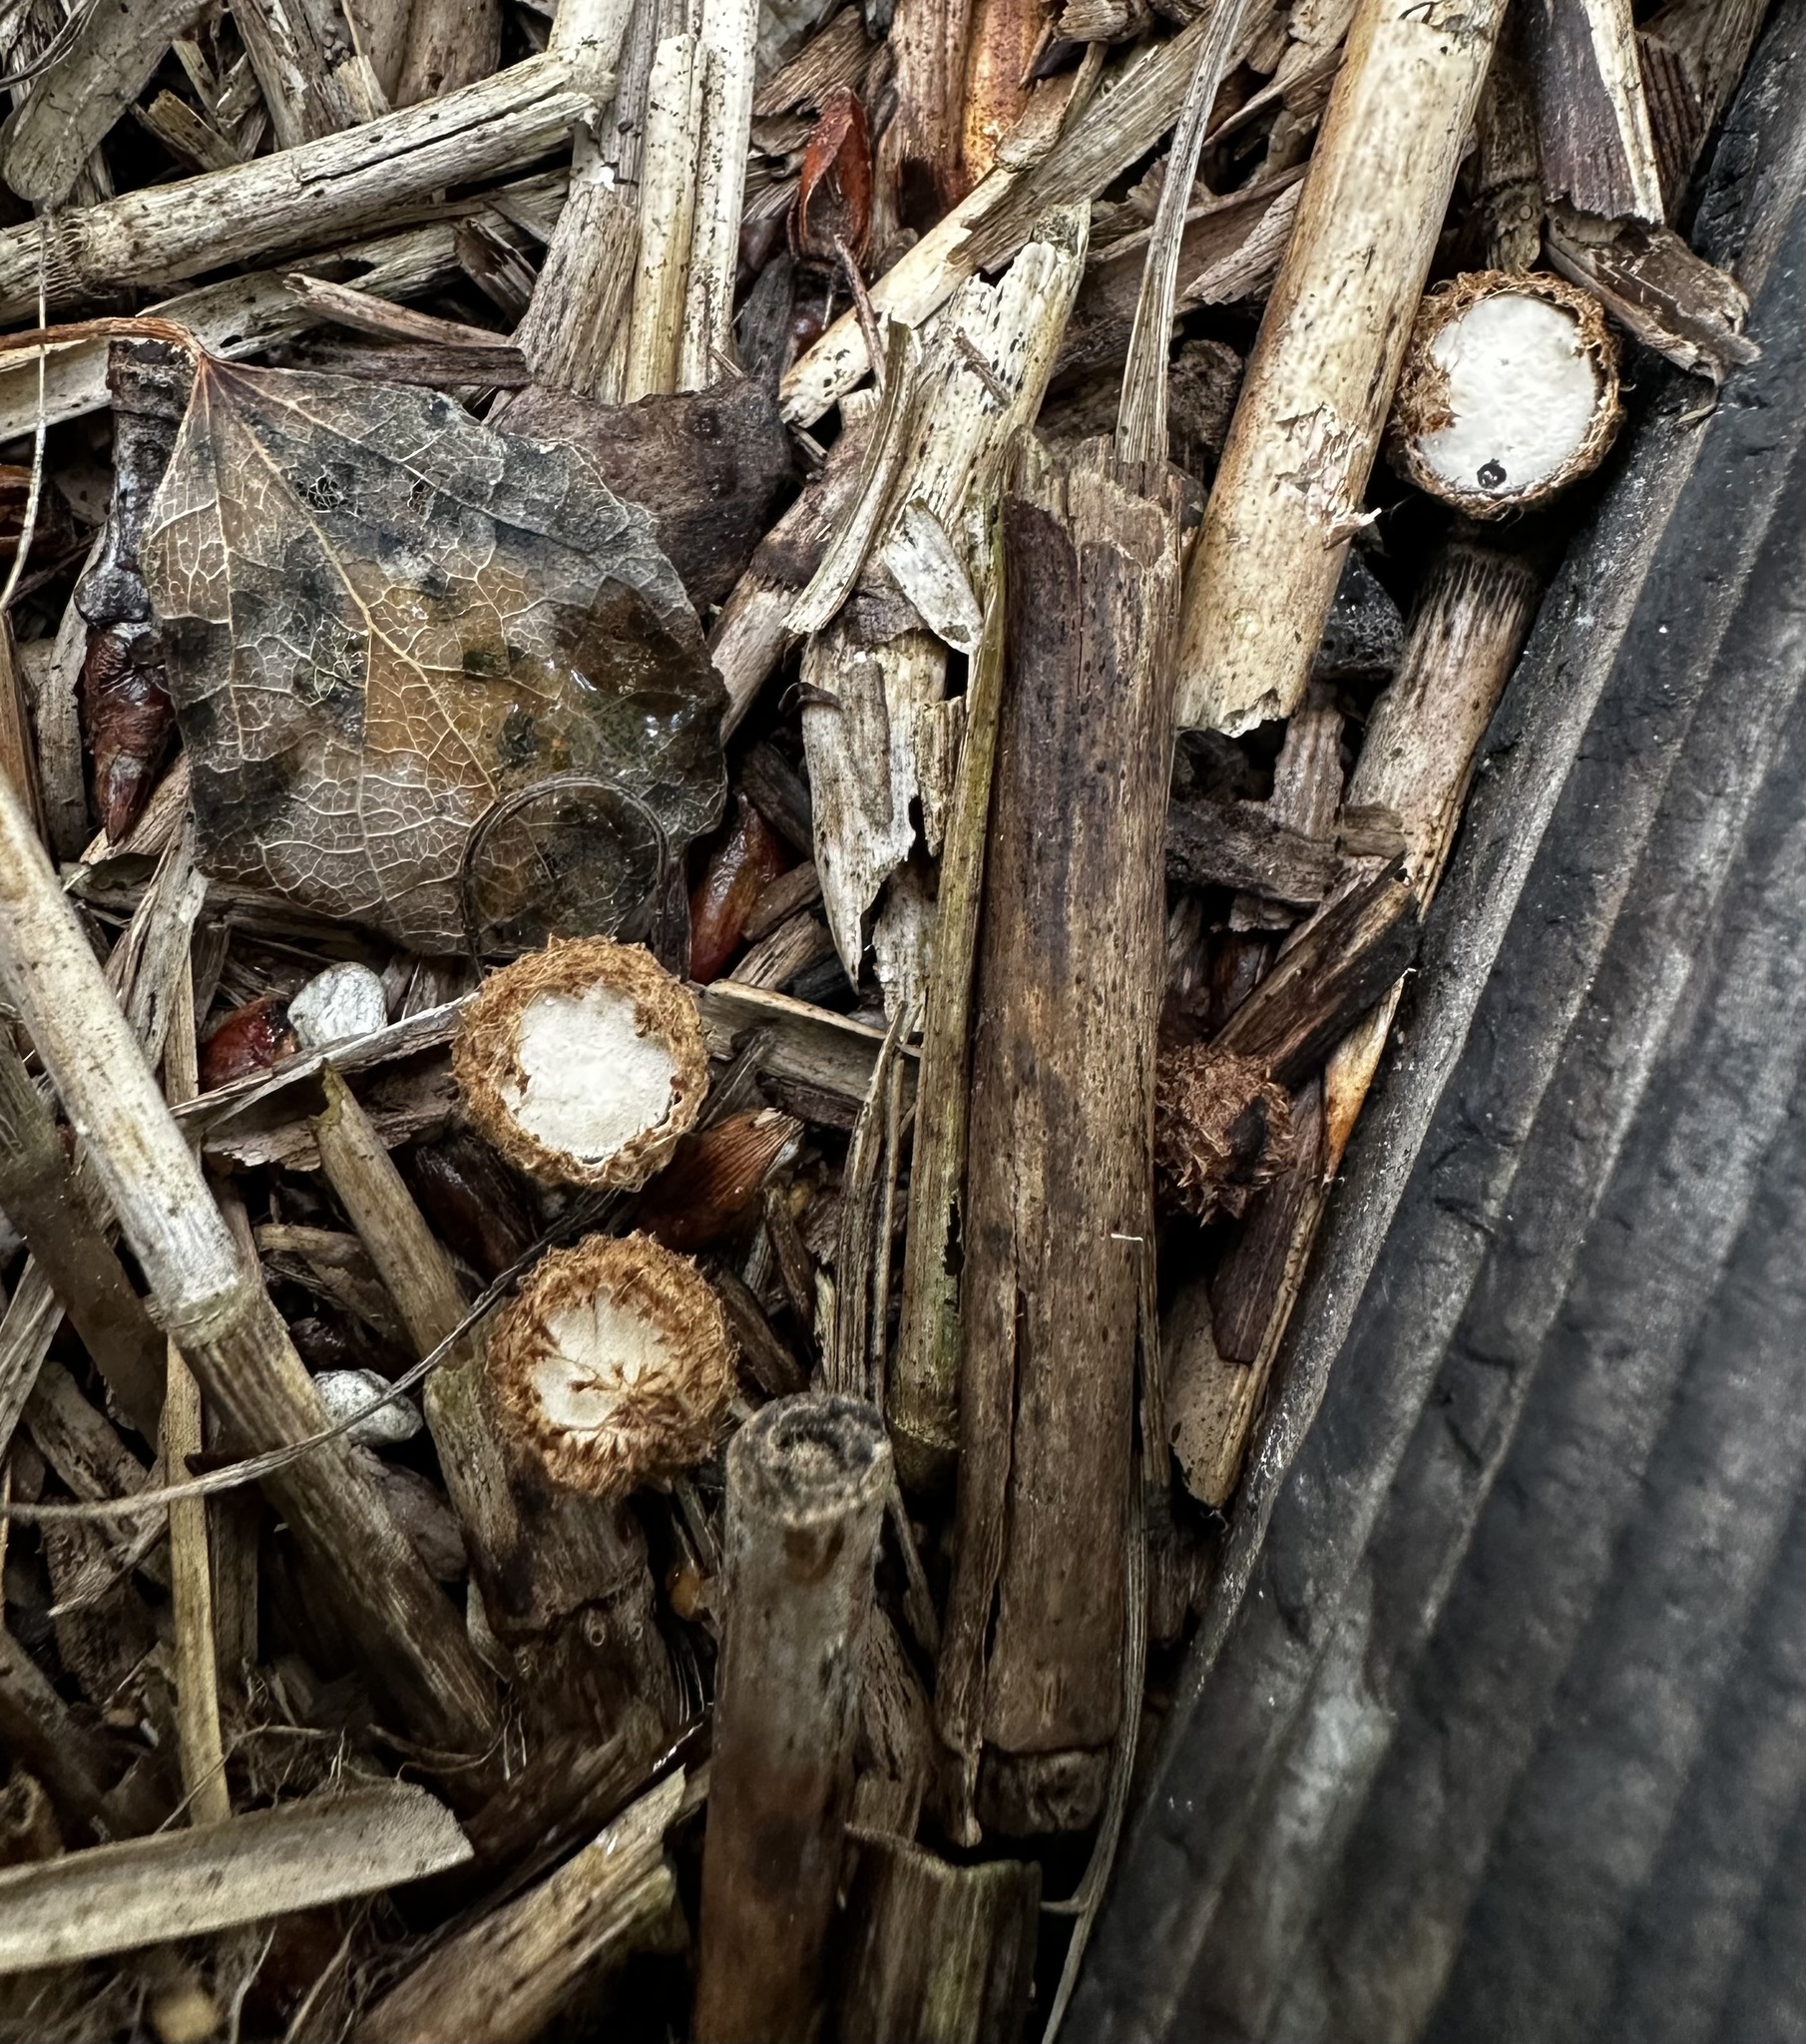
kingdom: Fungi
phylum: Basidiomycota
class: Agaricomycetes
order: Agaricales
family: Agaricaceae
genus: Cyathus
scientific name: Cyathus striatus
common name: Fluted bird's nest
